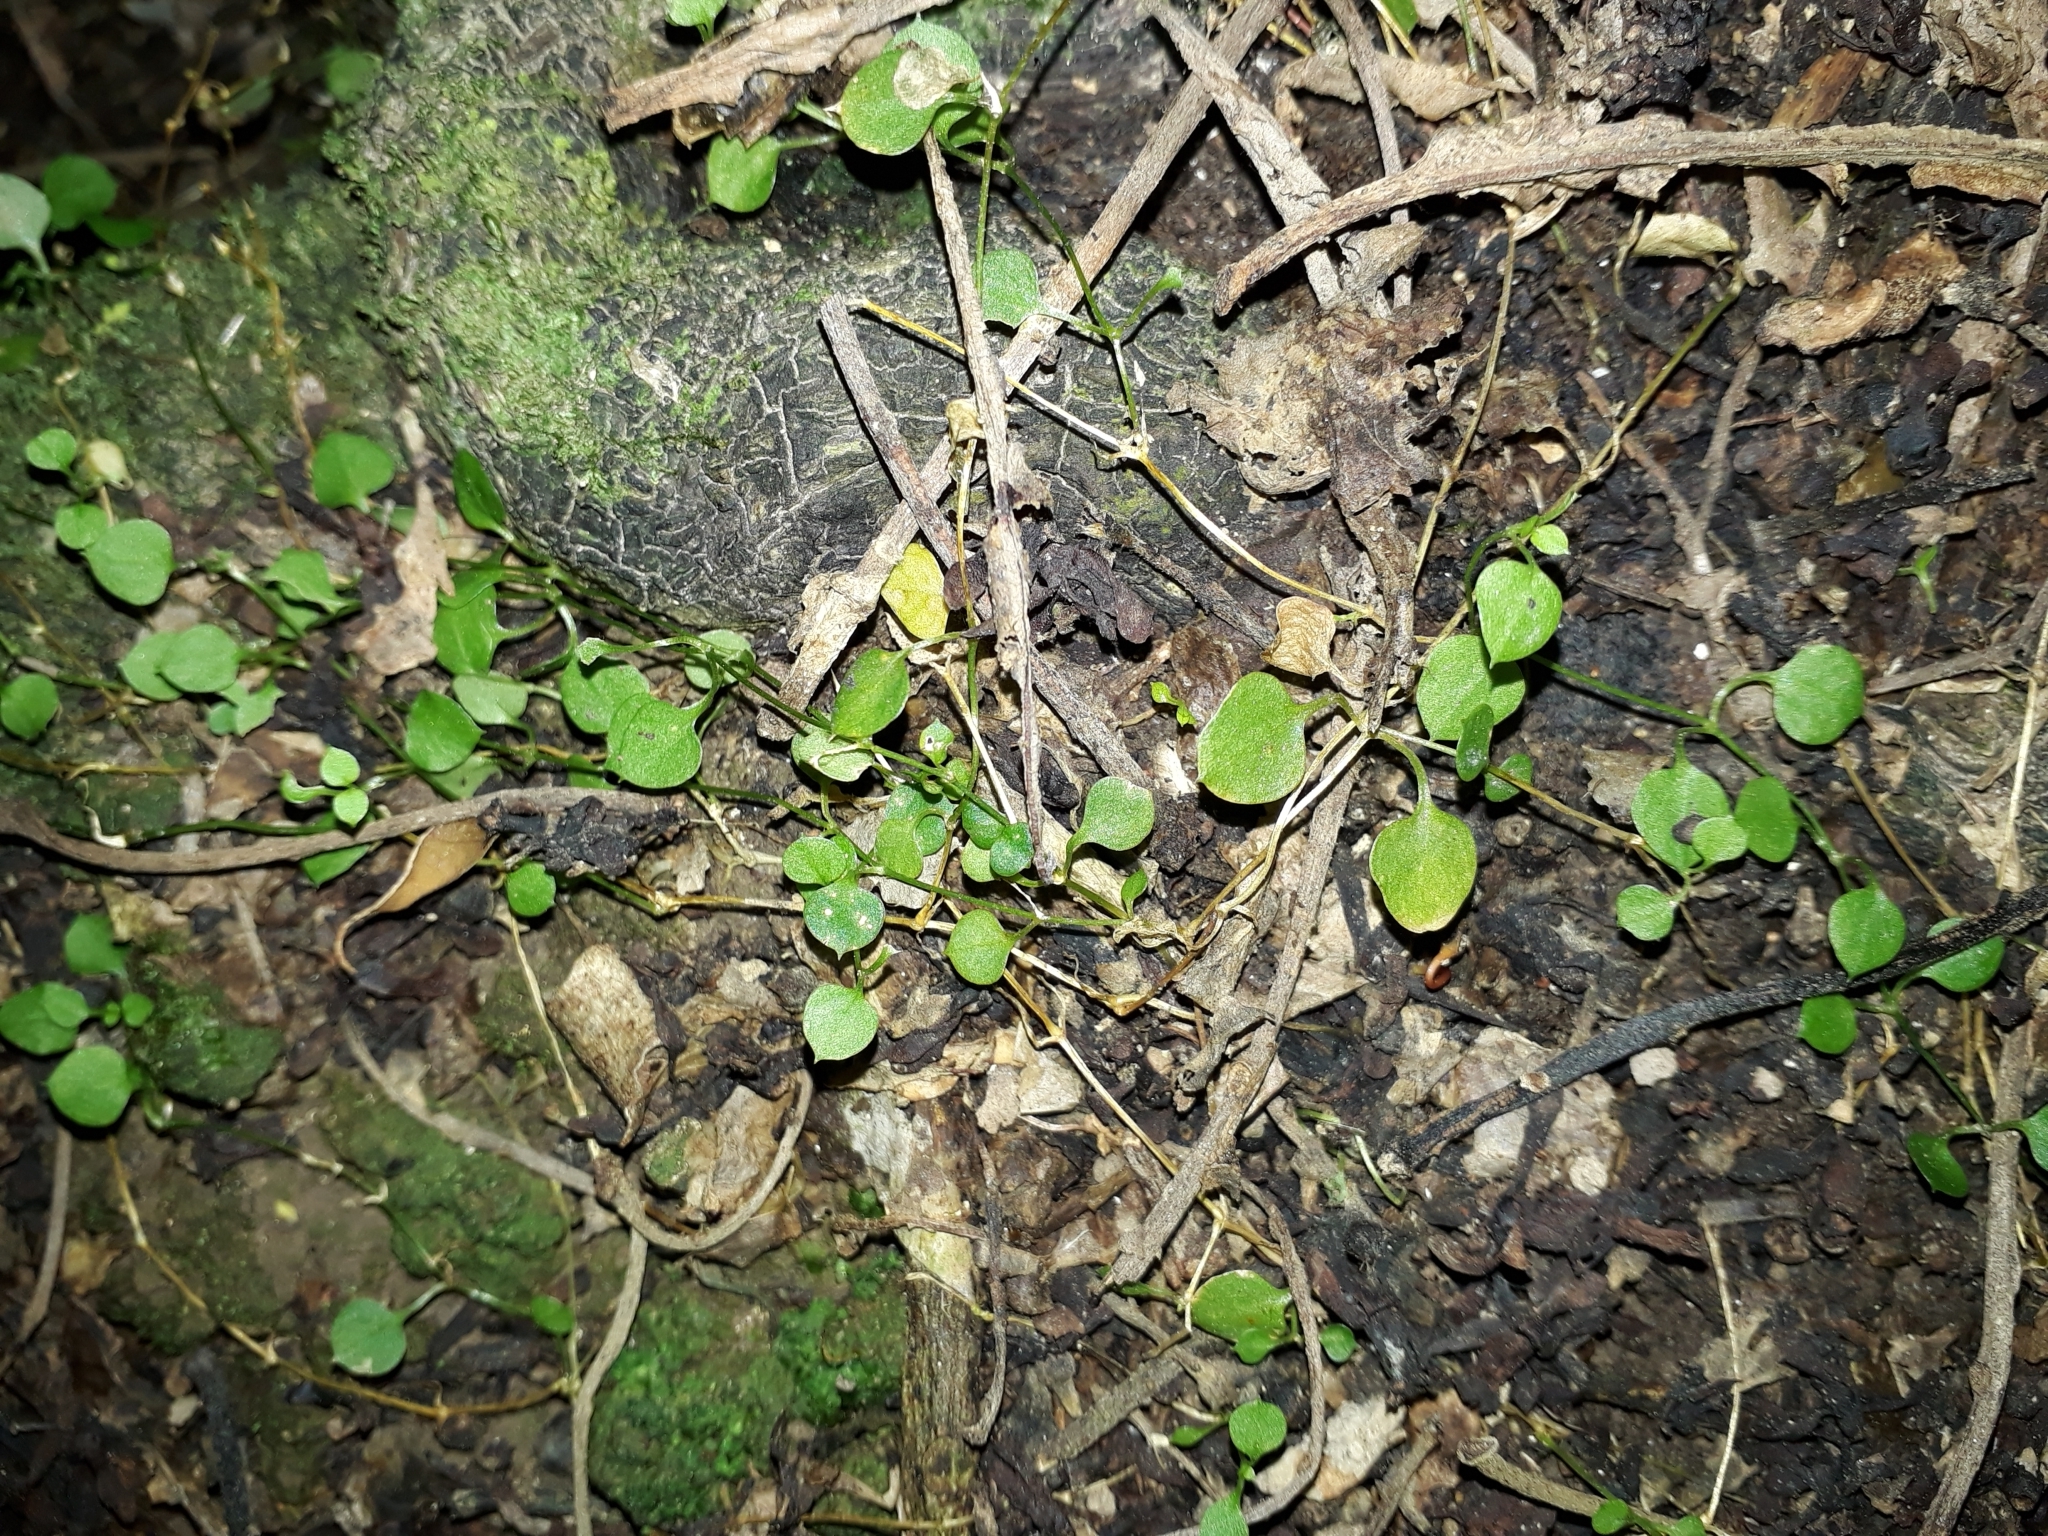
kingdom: Plantae
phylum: Tracheophyta
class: Magnoliopsida
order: Caryophyllales
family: Caryophyllaceae
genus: Stellaria
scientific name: Stellaria parviflora
